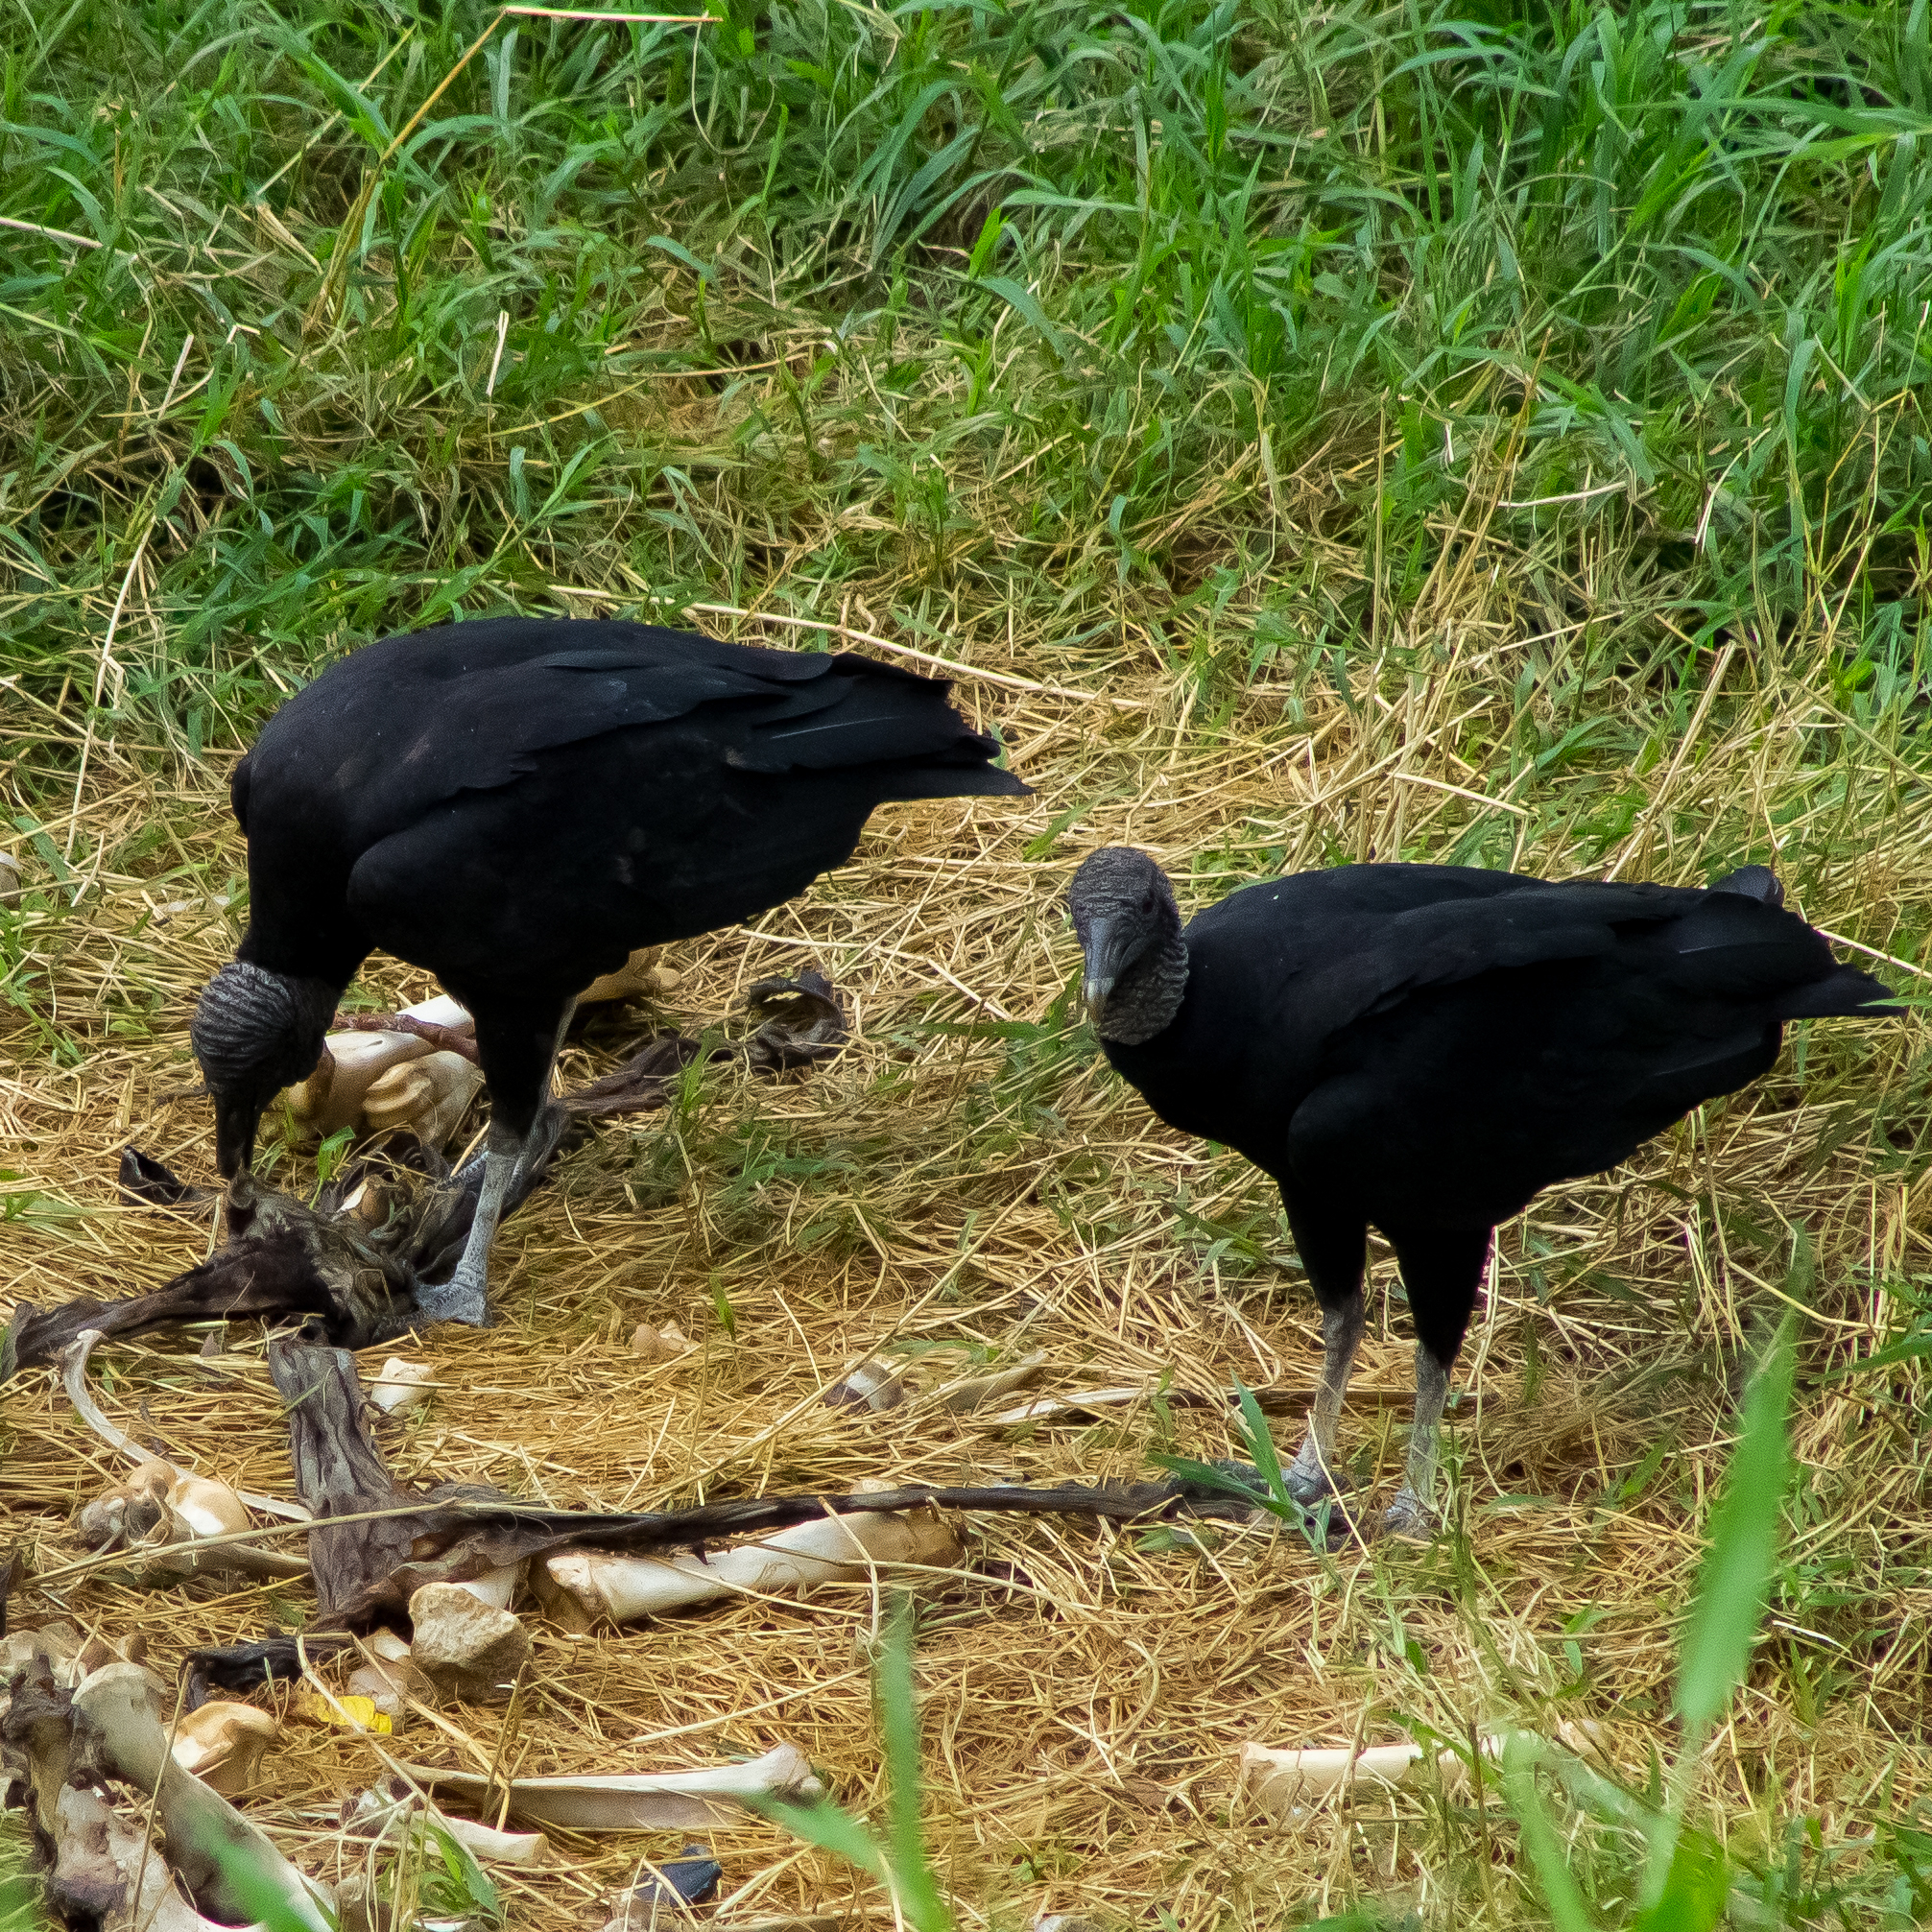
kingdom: Animalia
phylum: Chordata
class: Aves
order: Accipitriformes
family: Cathartidae
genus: Coragyps
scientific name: Coragyps atratus
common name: Black vulture
